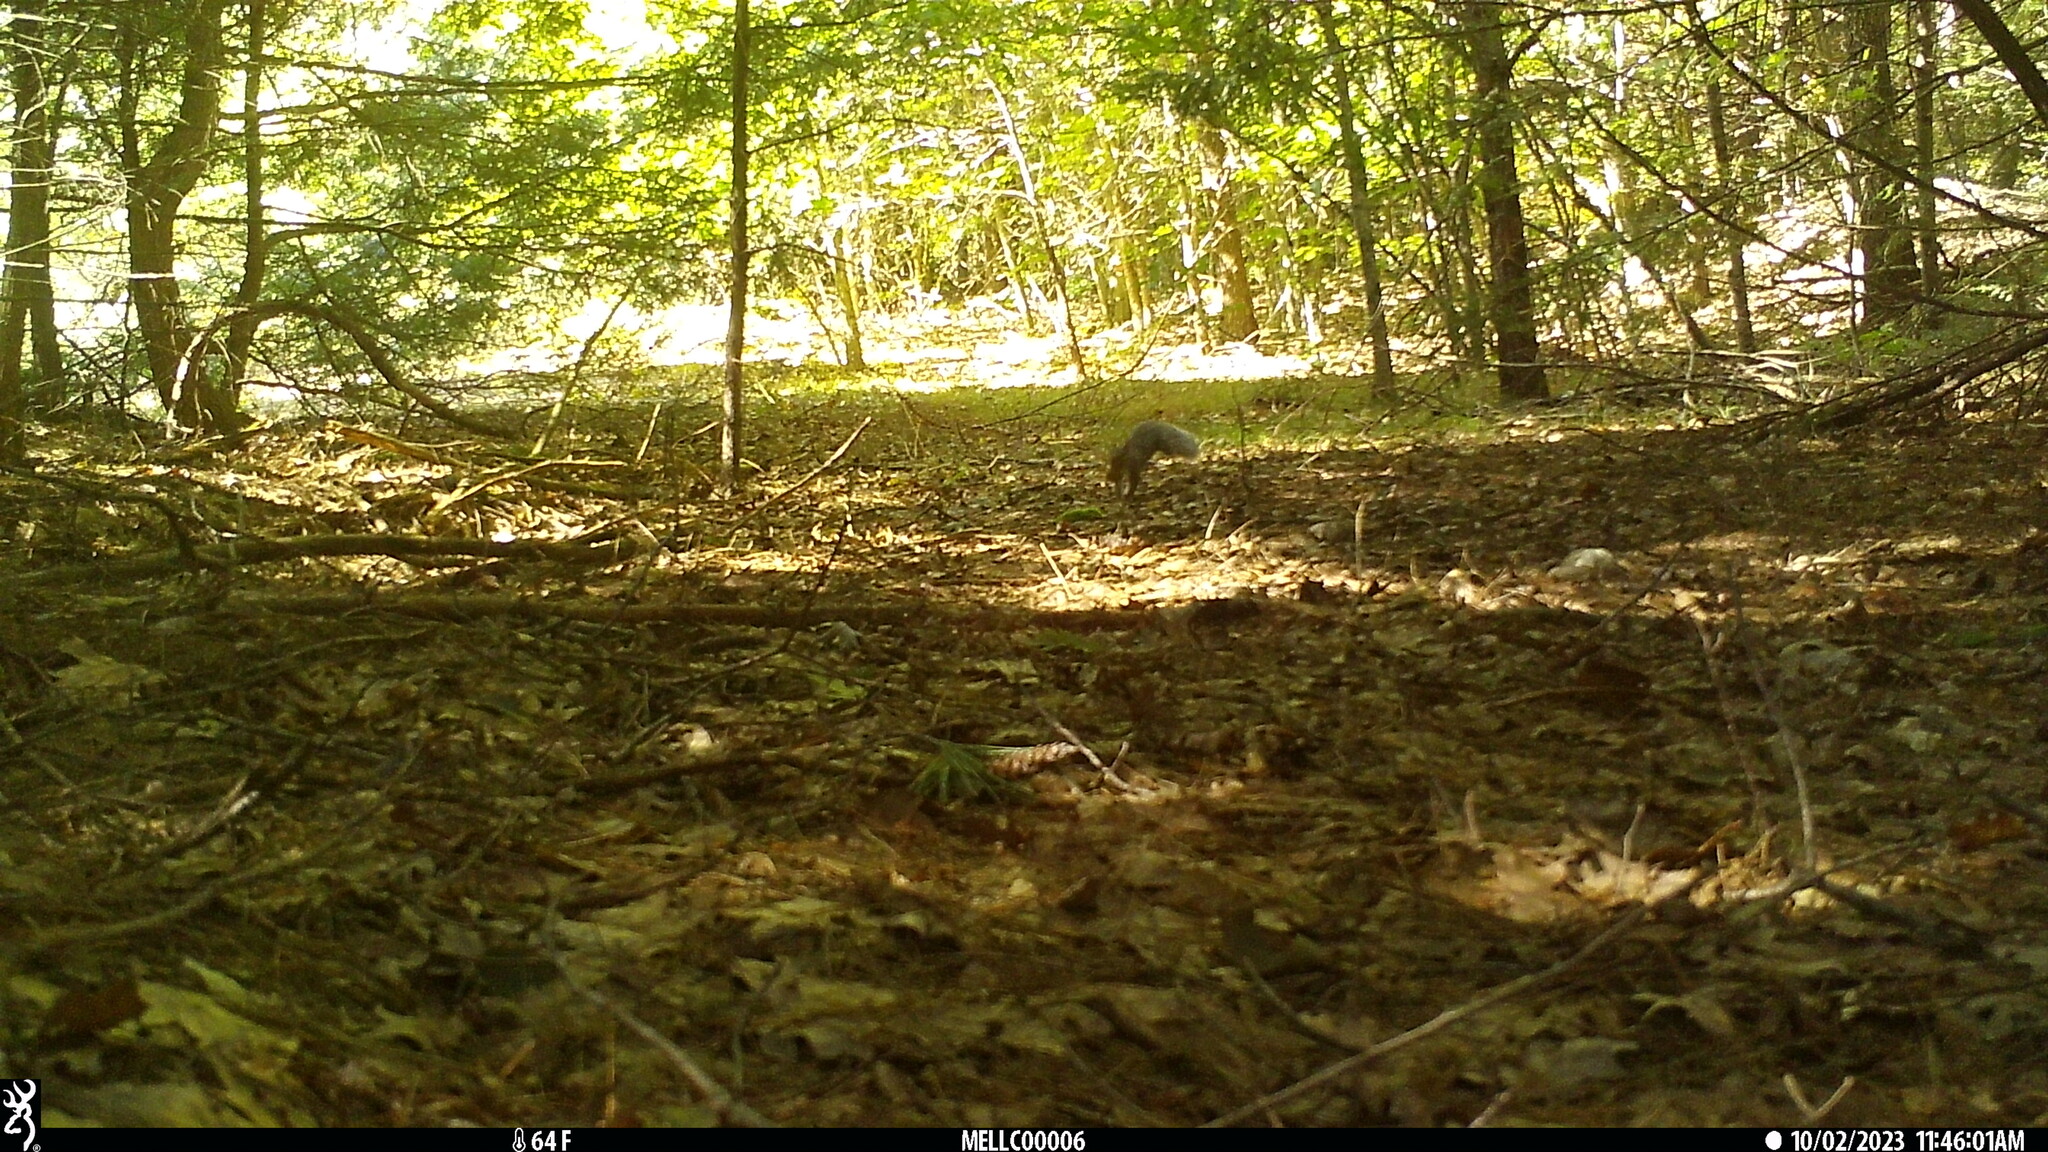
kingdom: Animalia
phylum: Chordata
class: Mammalia
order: Rodentia
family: Sciuridae
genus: Sciurus
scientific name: Sciurus carolinensis
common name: Eastern gray squirrel
